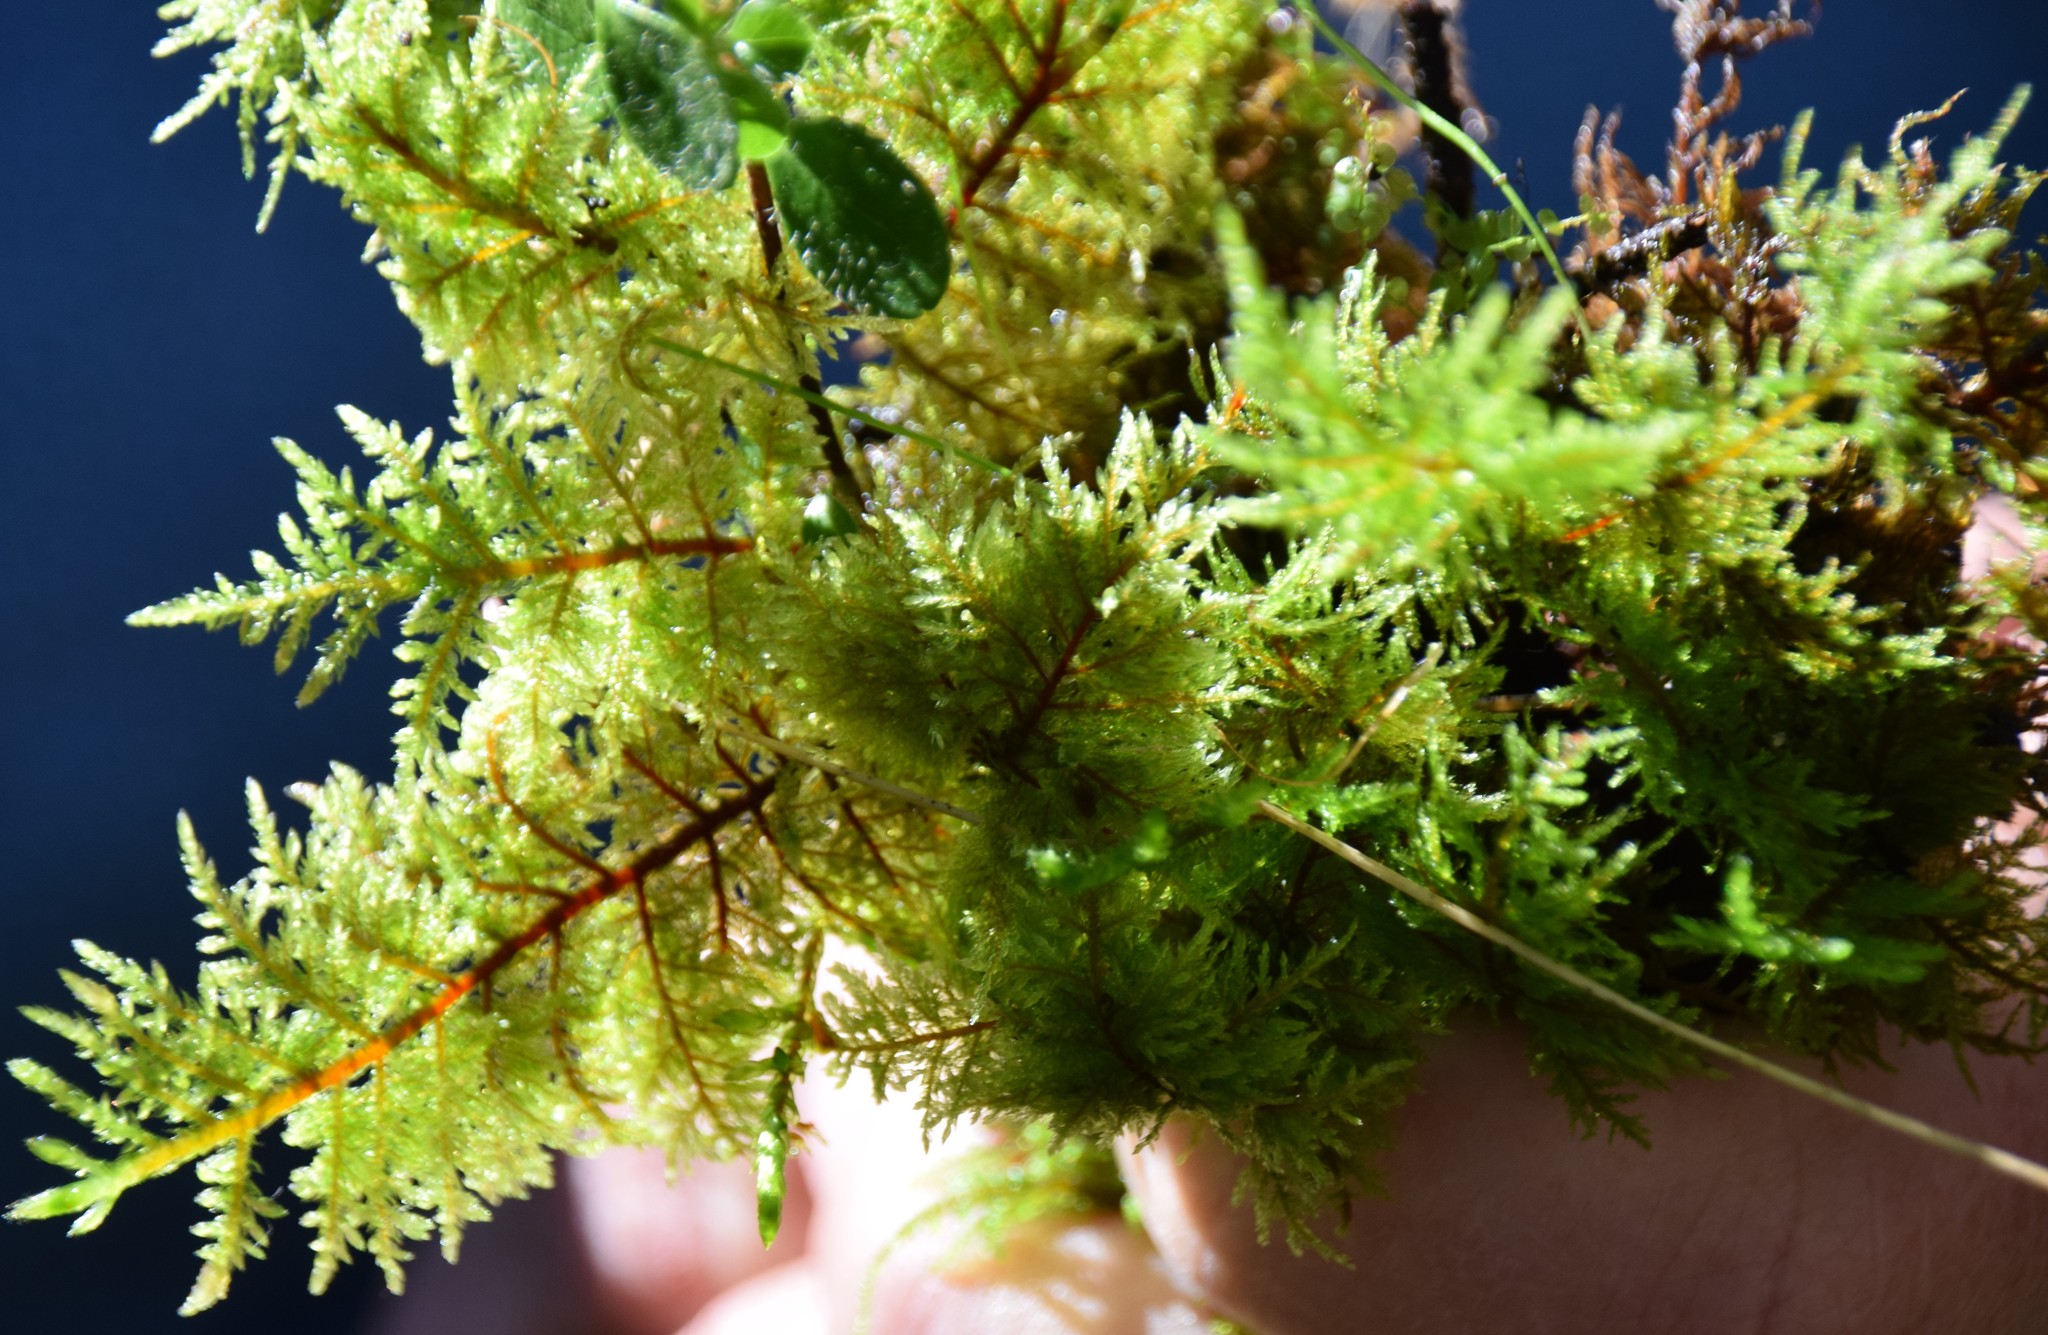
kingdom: Plantae
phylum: Bryophyta
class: Bryopsida
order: Hypnales
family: Hylocomiaceae
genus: Hylocomium
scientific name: Hylocomium splendens
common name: Stairstep moss
